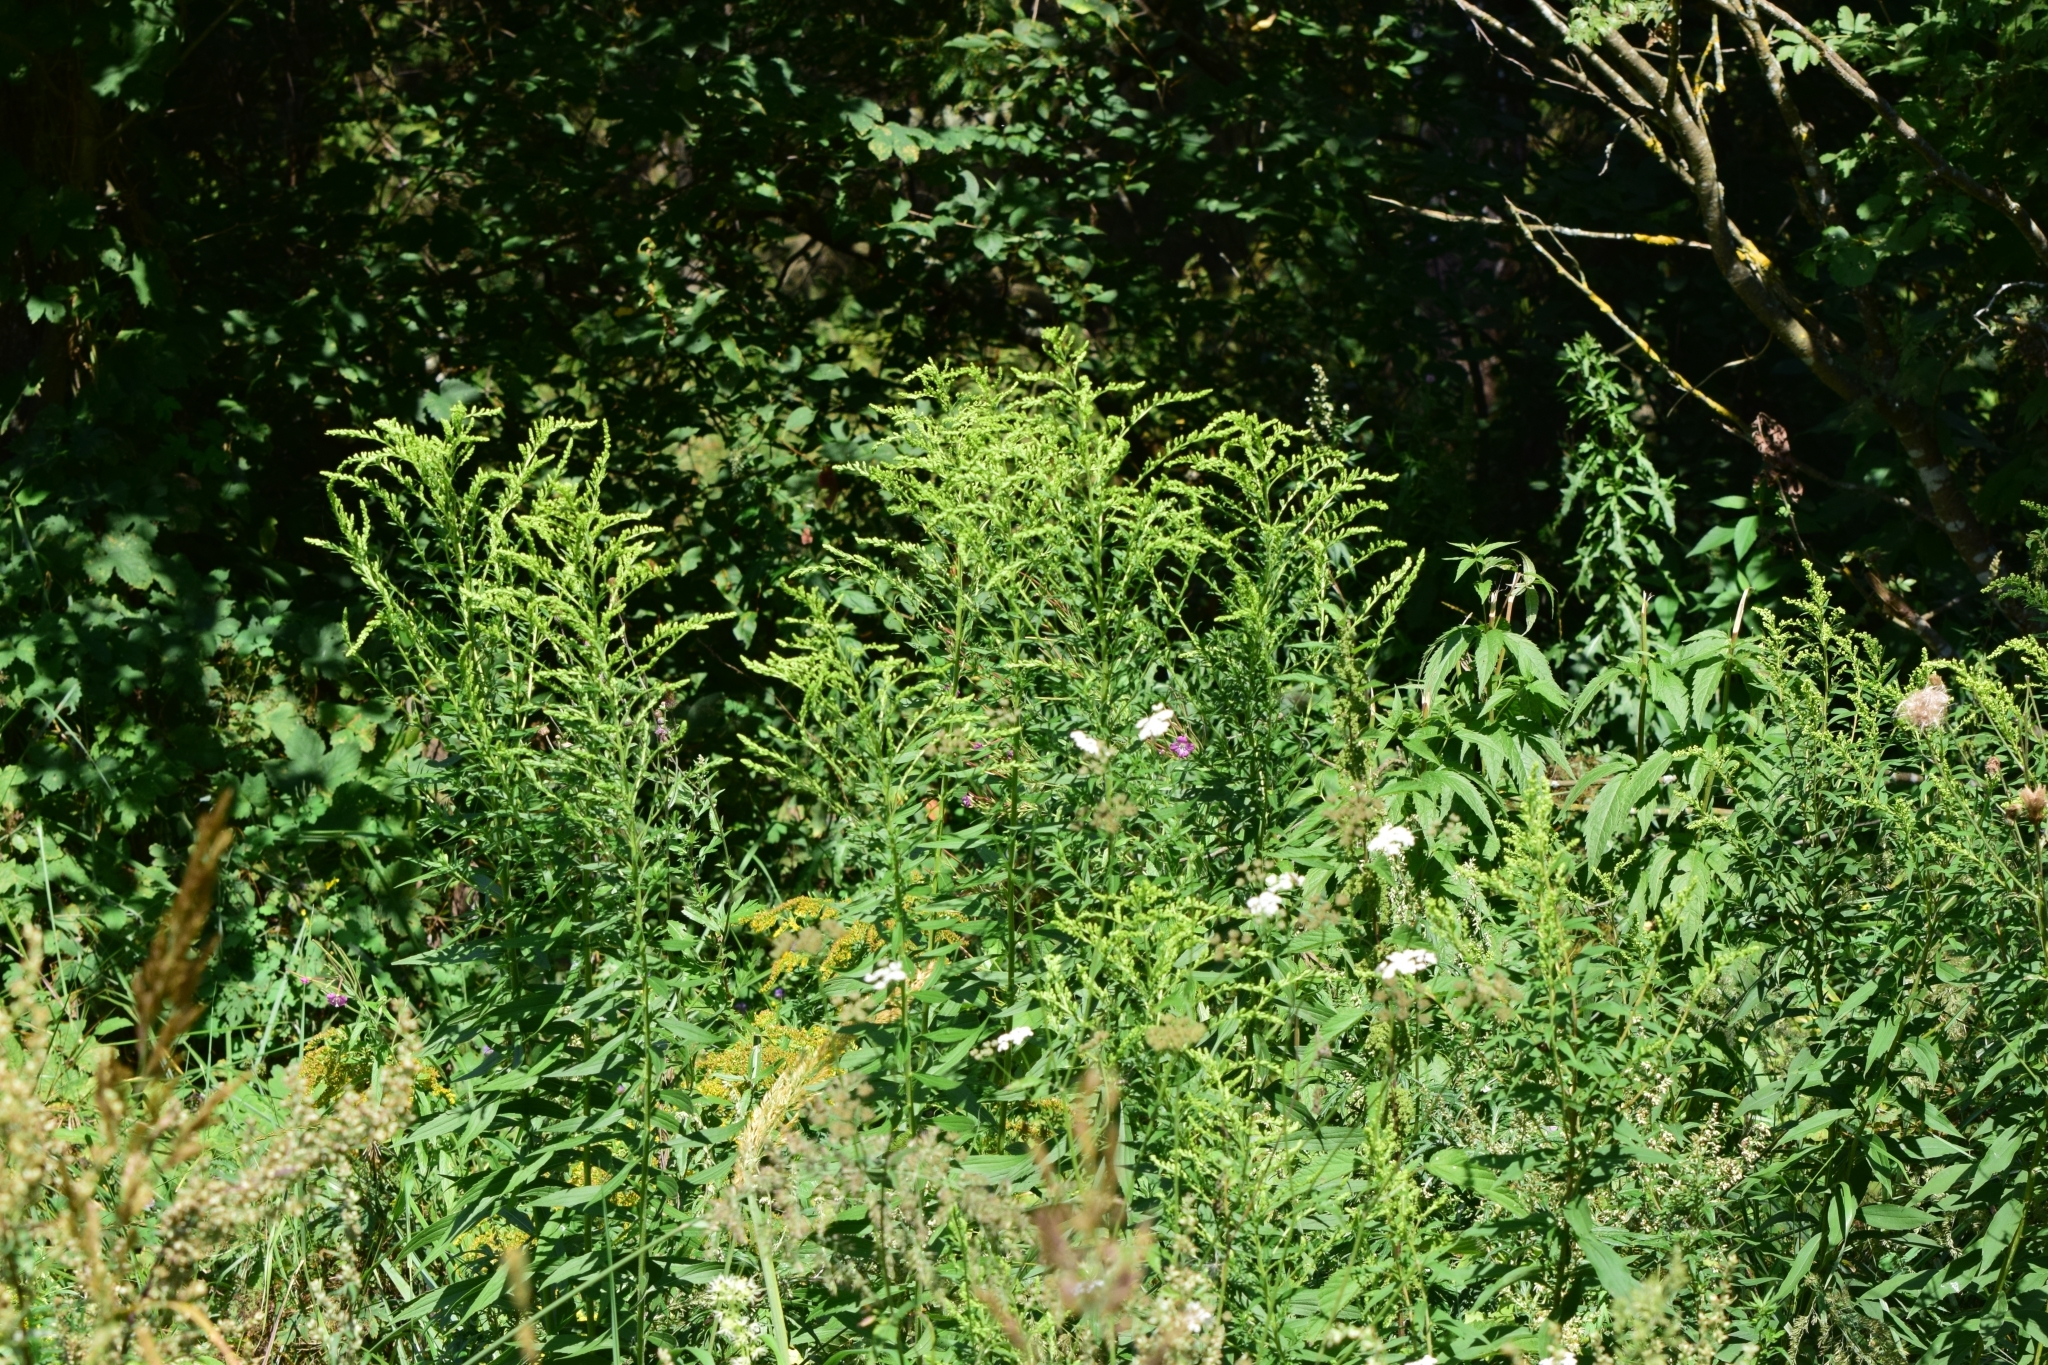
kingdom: Plantae
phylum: Tracheophyta
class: Magnoliopsida
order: Asterales
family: Asteraceae
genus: Solidago
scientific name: Solidago canadensis
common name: Canada goldenrod
